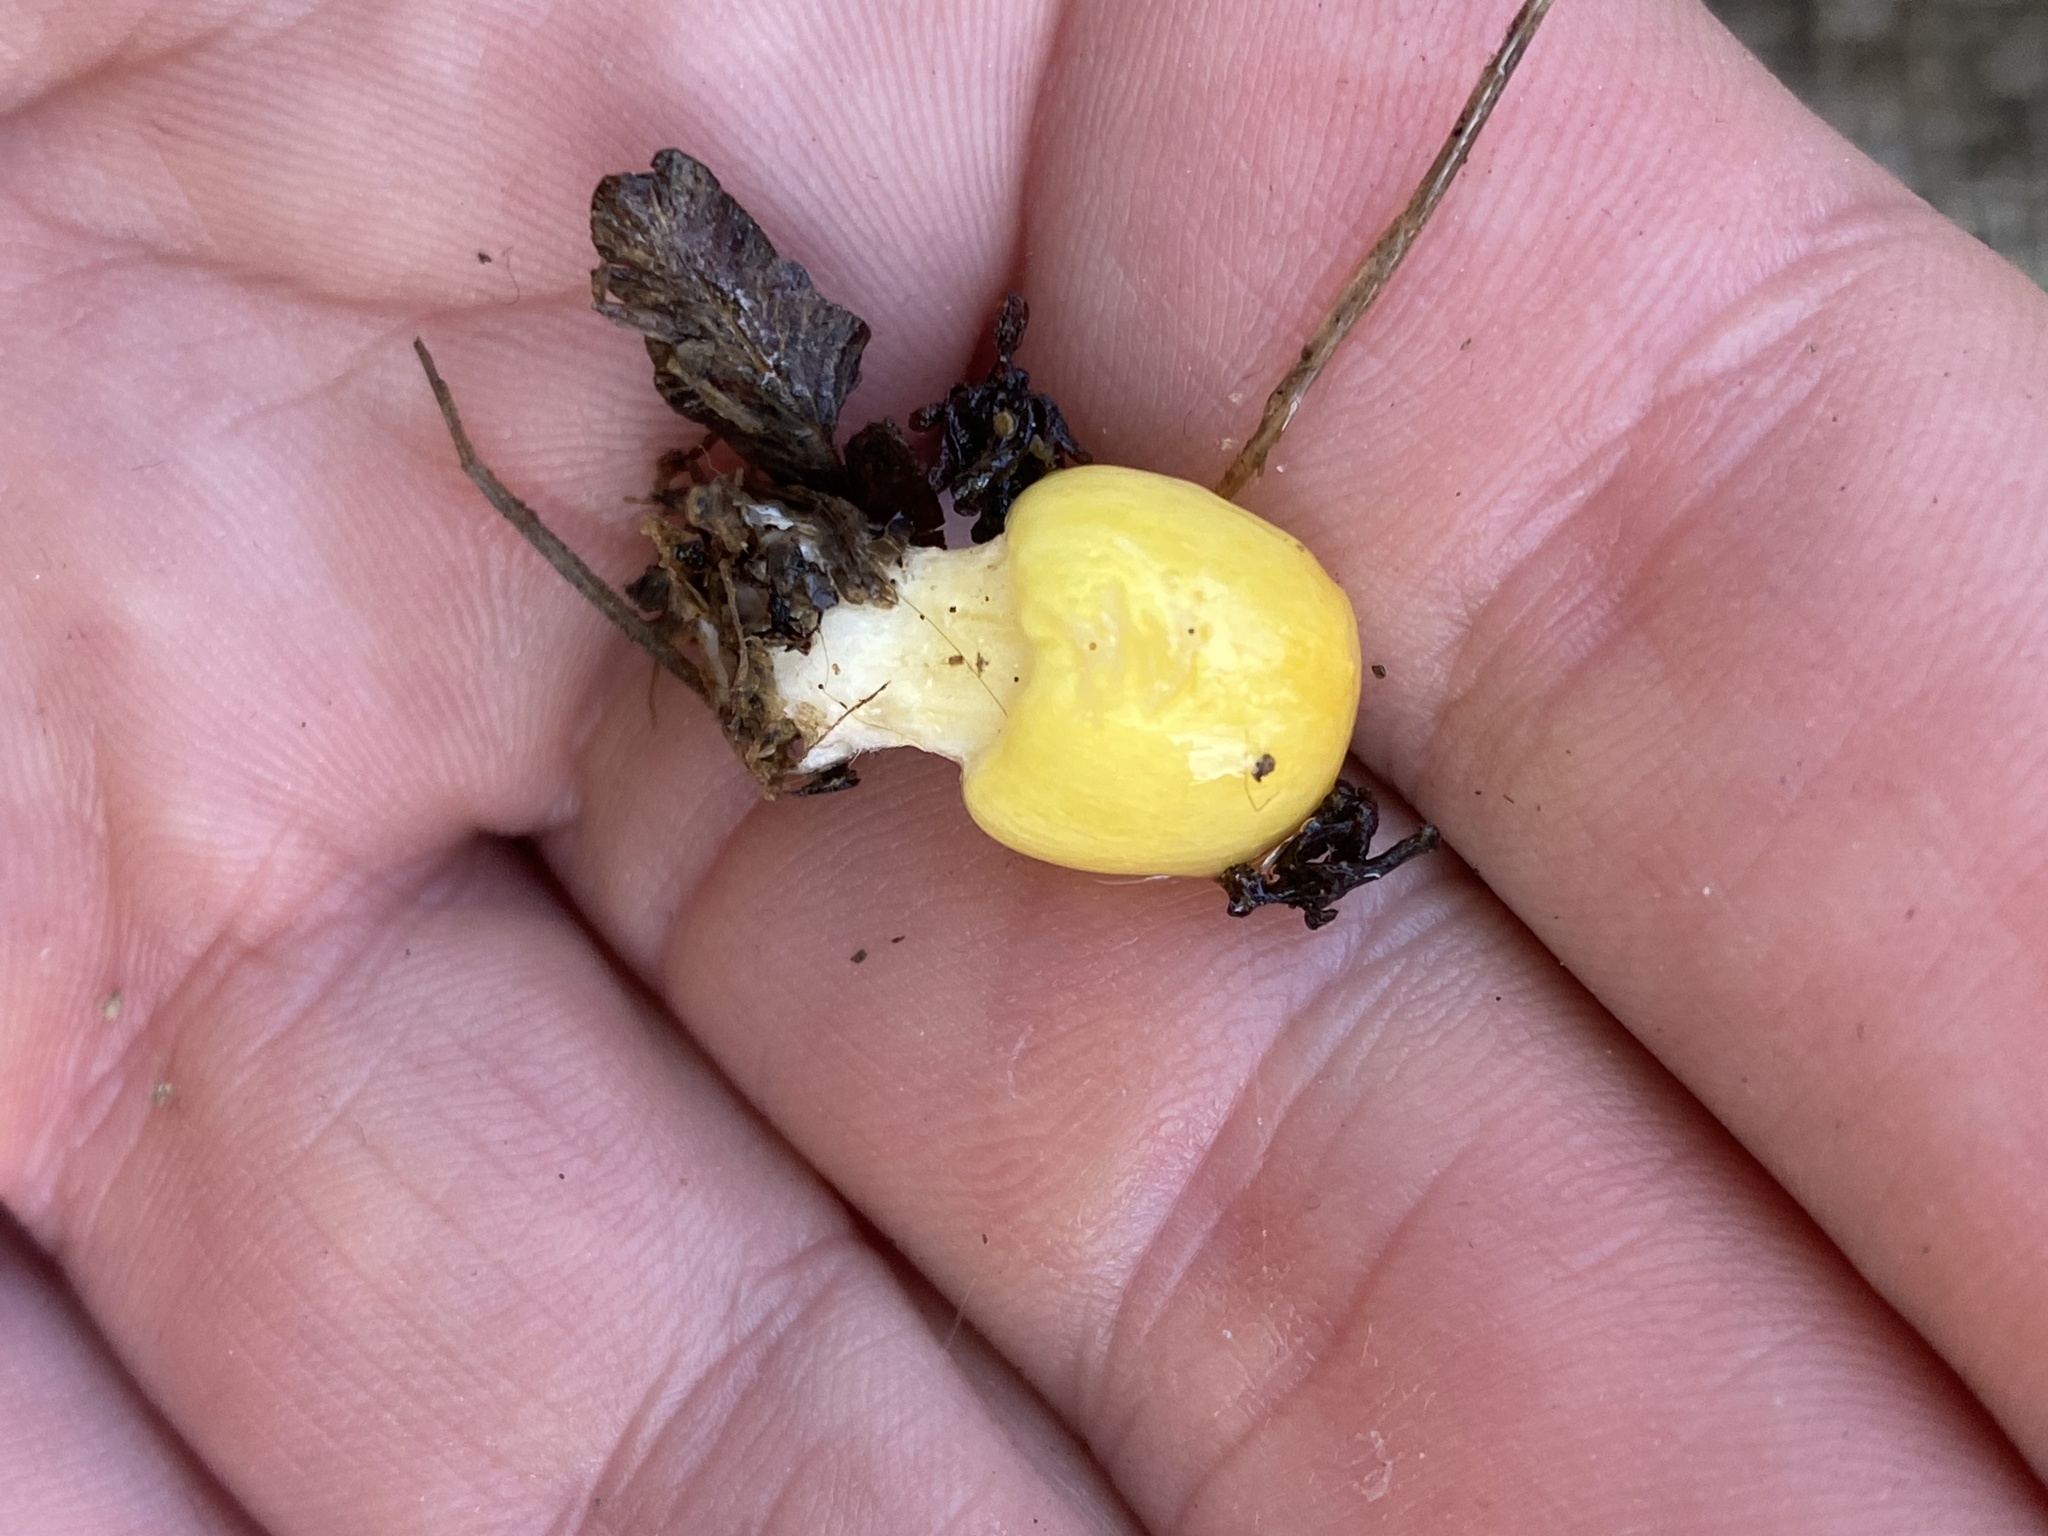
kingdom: Fungi
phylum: Basidiomycota
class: Agaricomycetes
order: Agaricales
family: Bolbitiaceae
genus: Bolbitius
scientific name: Bolbitius titubans
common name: Yellow fieldcap
